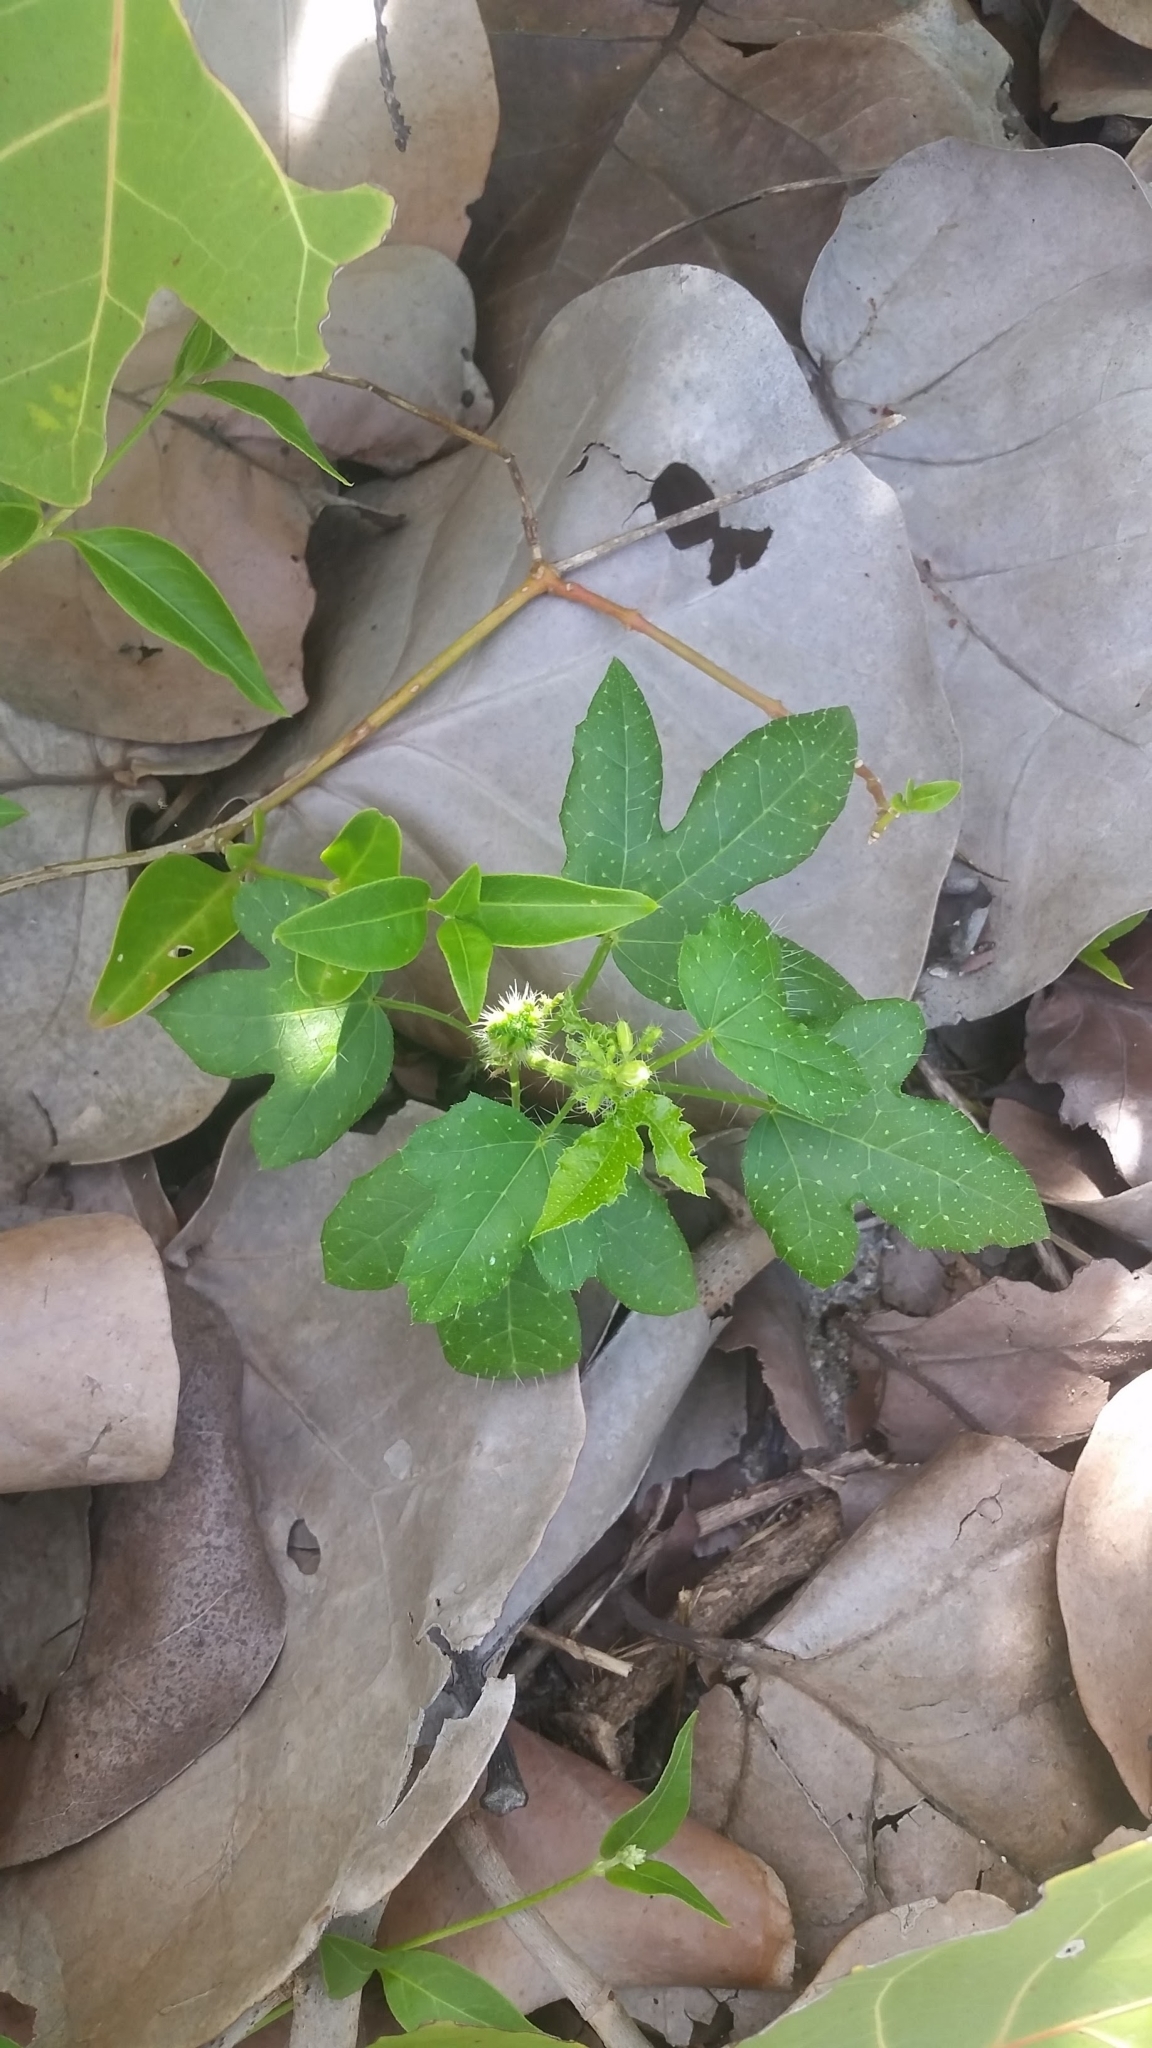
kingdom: Plantae
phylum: Tracheophyta
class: Magnoliopsida
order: Malpighiales
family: Euphorbiaceae
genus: Cnidoscolus
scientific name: Cnidoscolus stimulosus
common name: Bull-nettle
